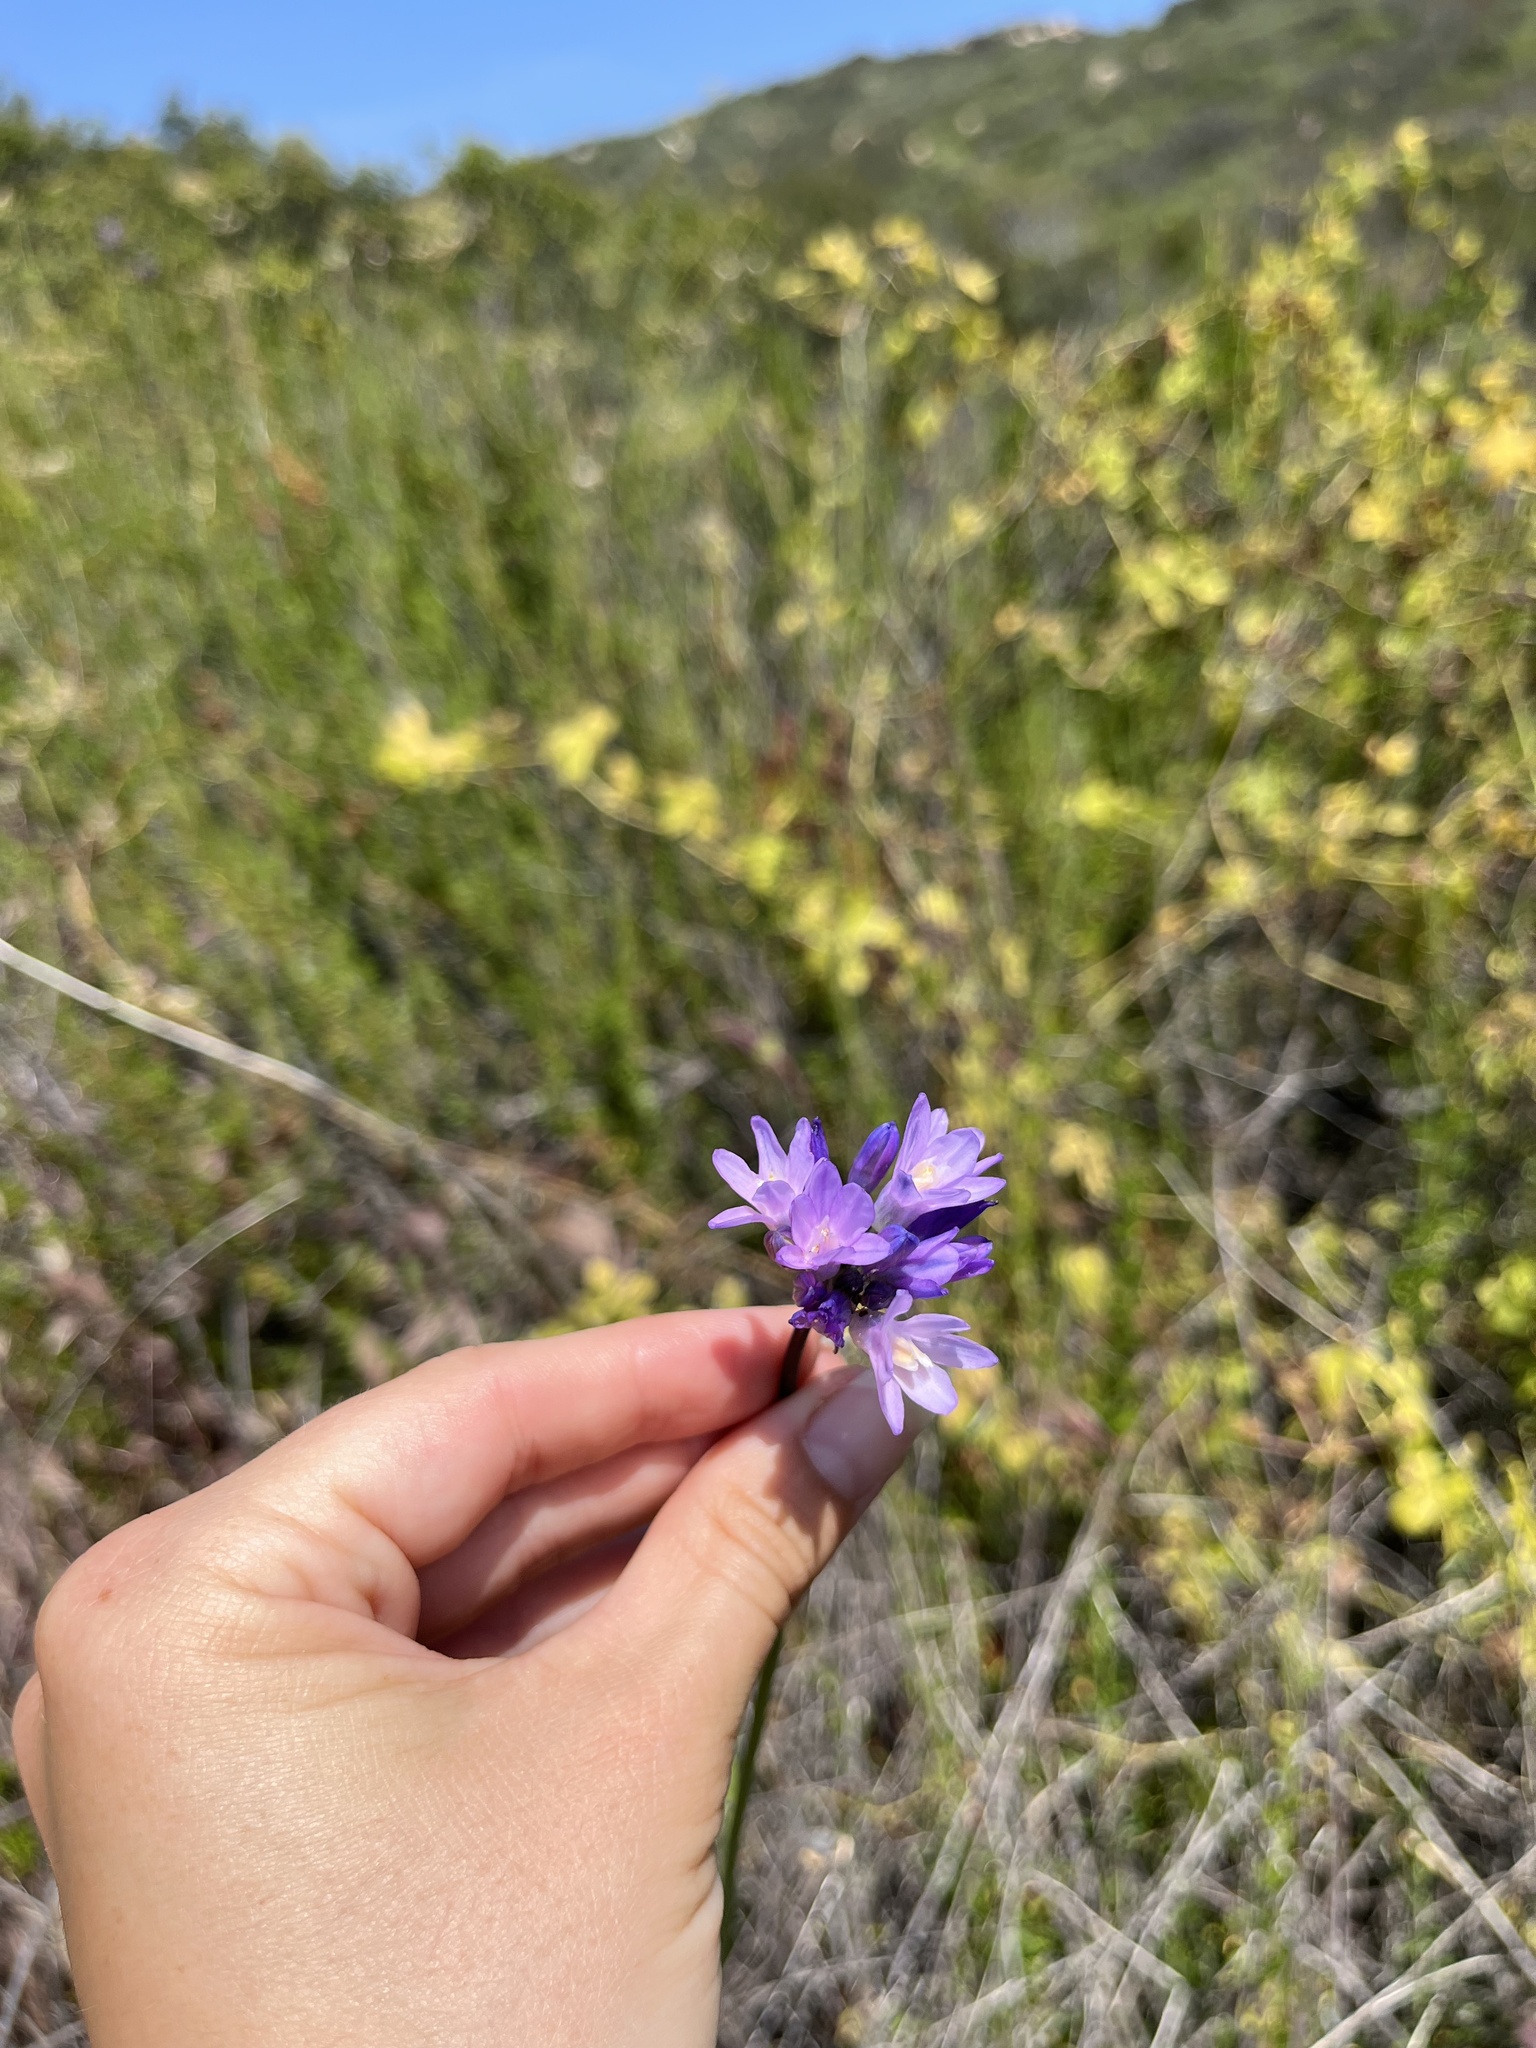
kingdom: Plantae
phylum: Tracheophyta
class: Liliopsida
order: Asparagales
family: Asparagaceae
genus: Dipterostemon
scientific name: Dipterostemon capitatus
